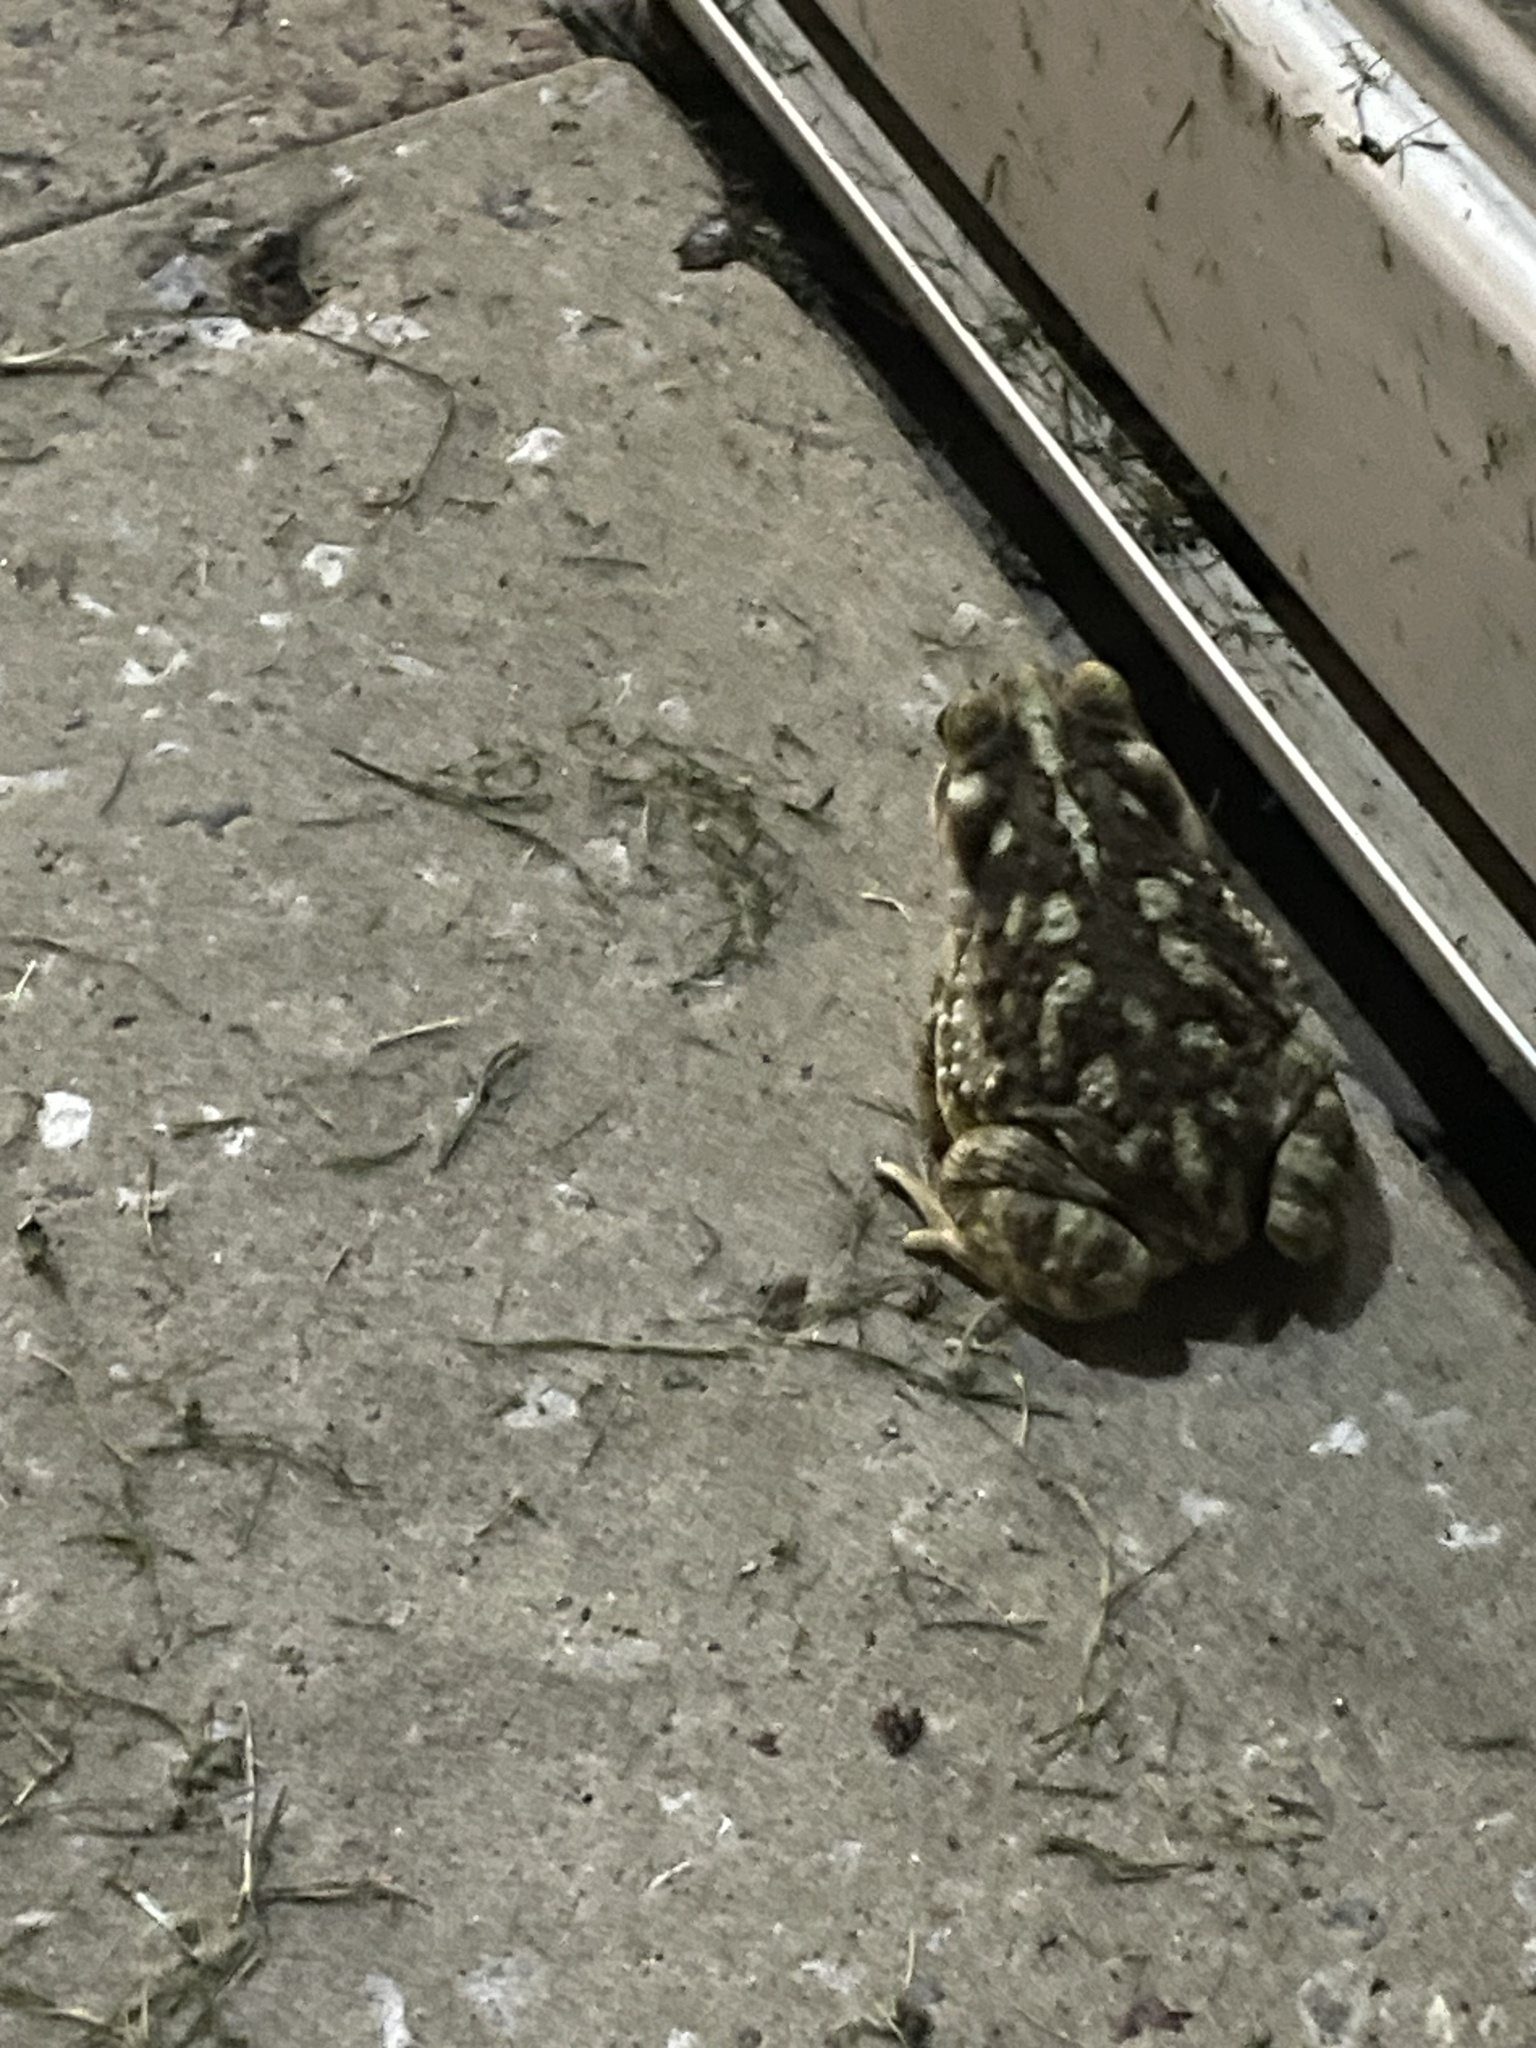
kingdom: Animalia
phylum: Chordata
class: Amphibia
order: Anura
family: Bufonidae
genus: Rhinella
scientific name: Rhinella arenarum
